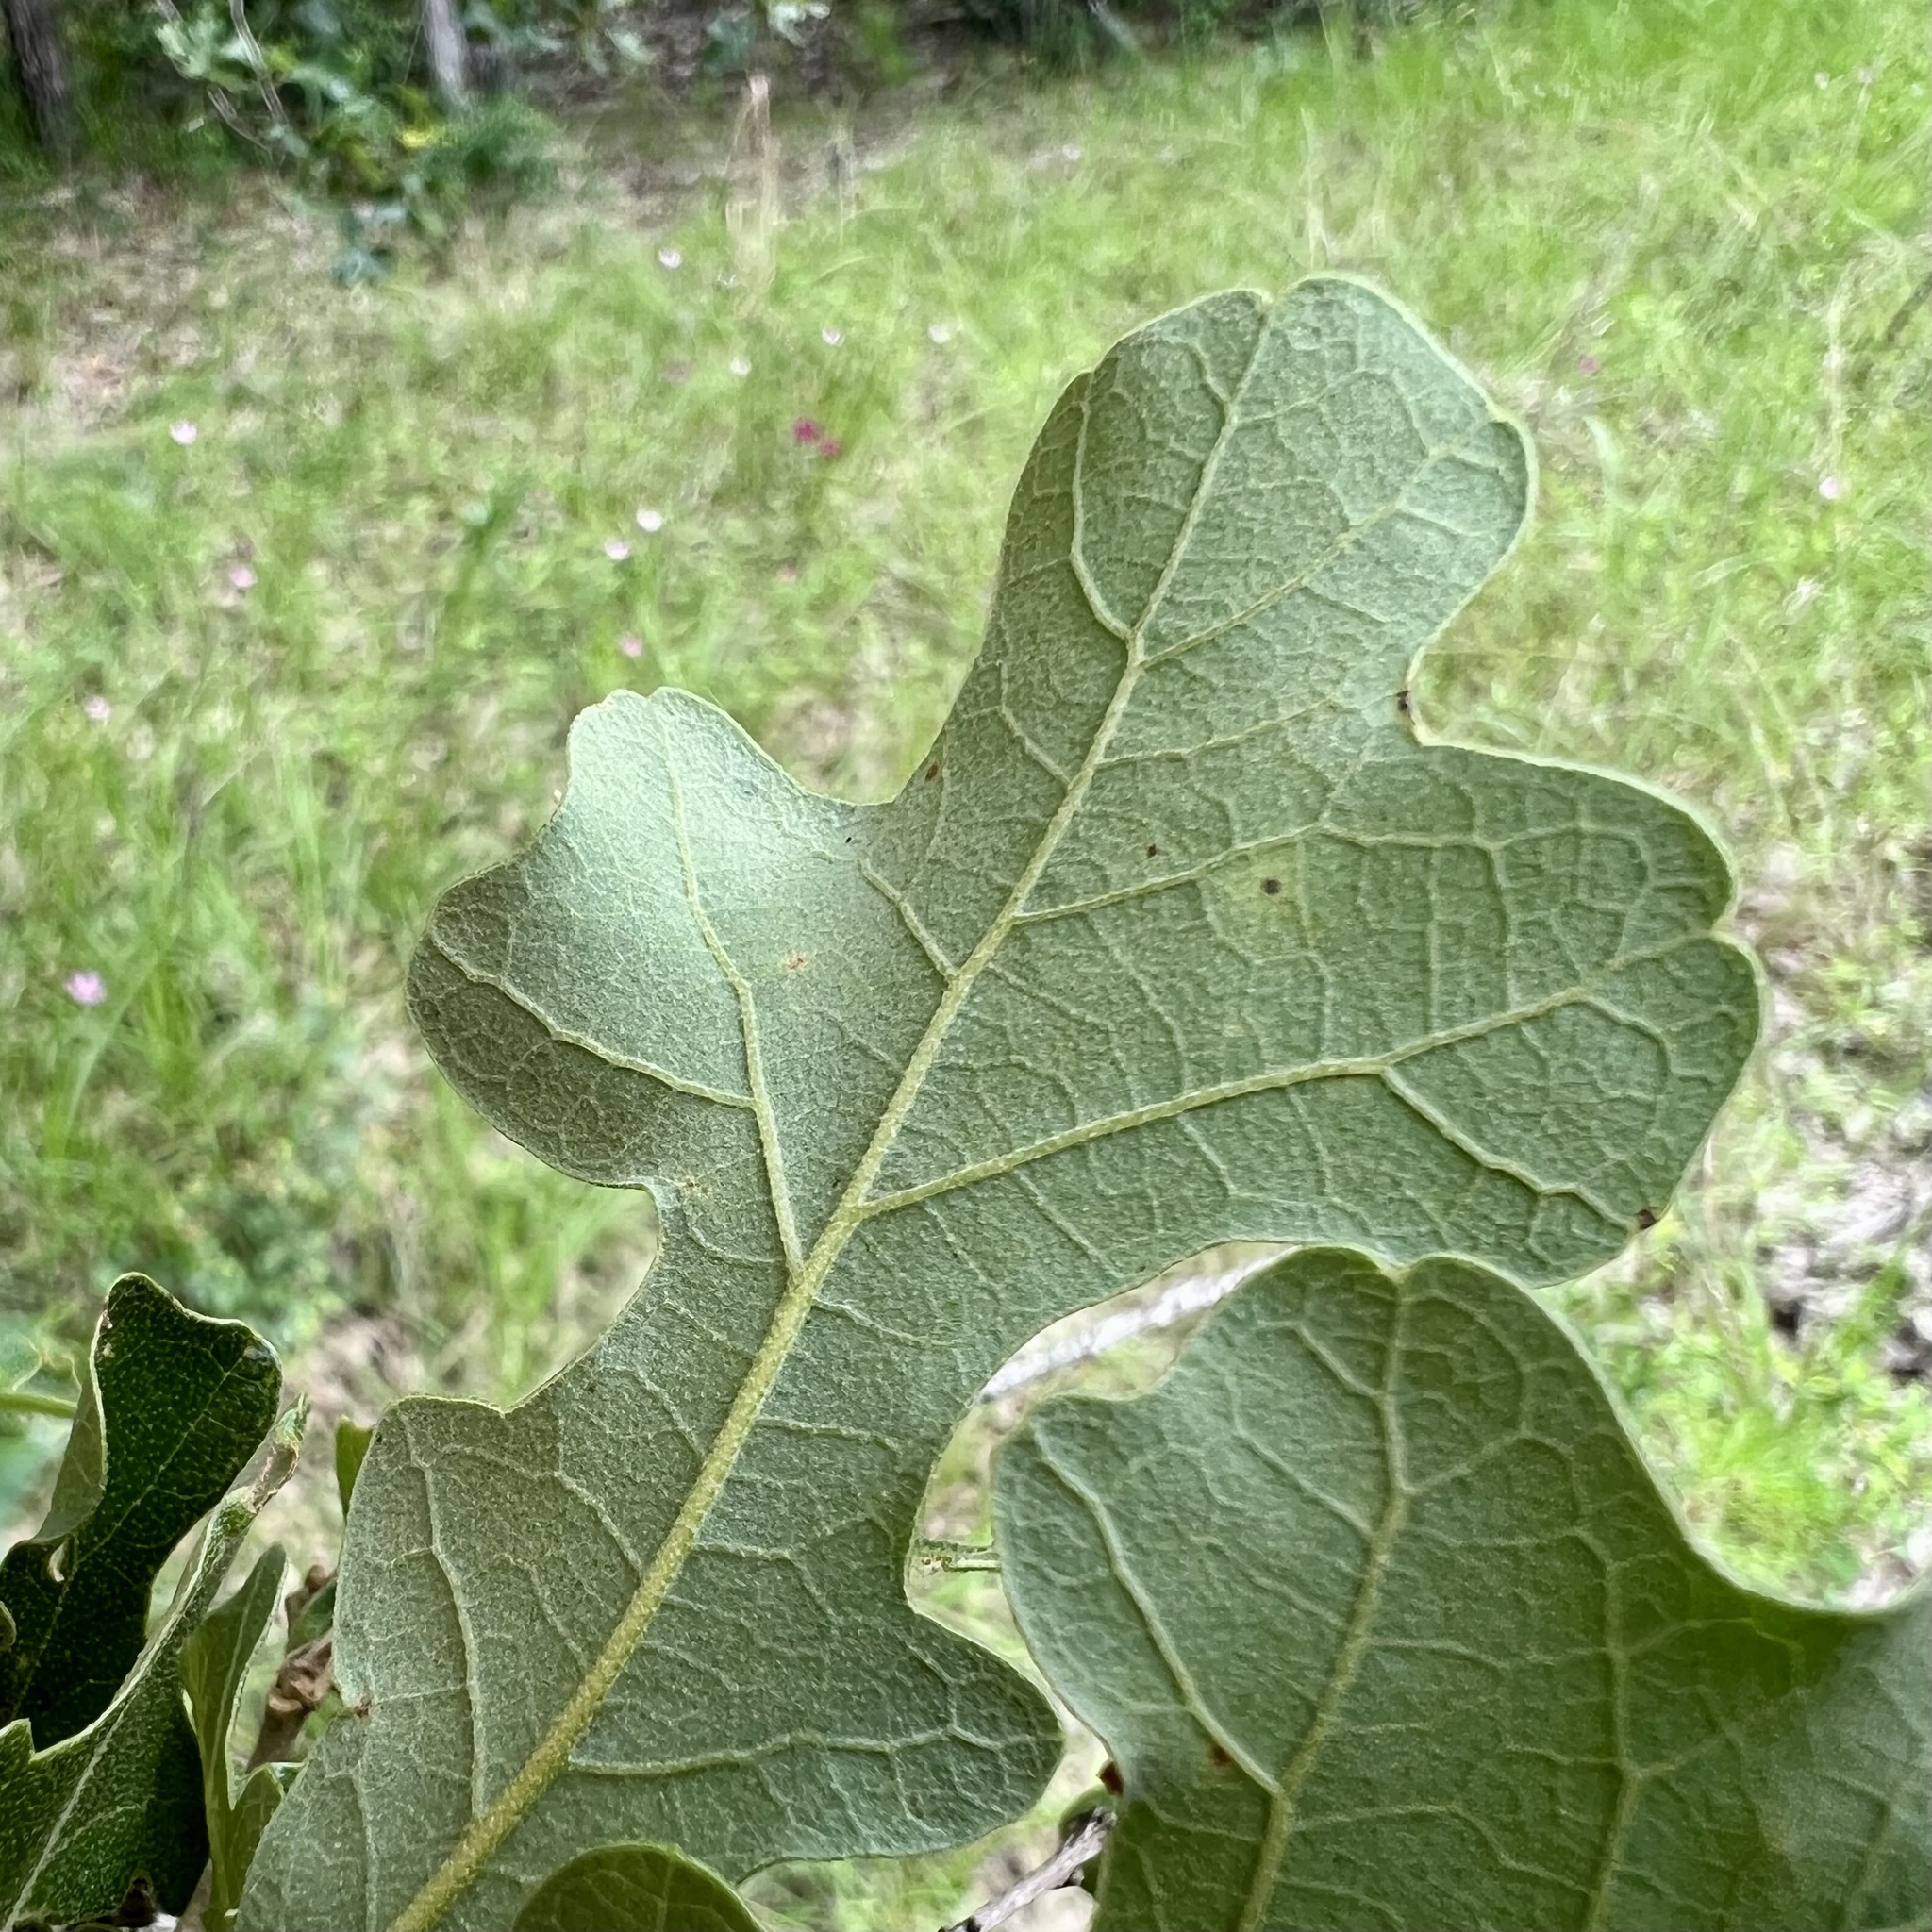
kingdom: Plantae
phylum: Tracheophyta
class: Magnoliopsida
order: Fagales
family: Fagaceae
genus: Quercus
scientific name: Quercus stellata
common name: Post oak
